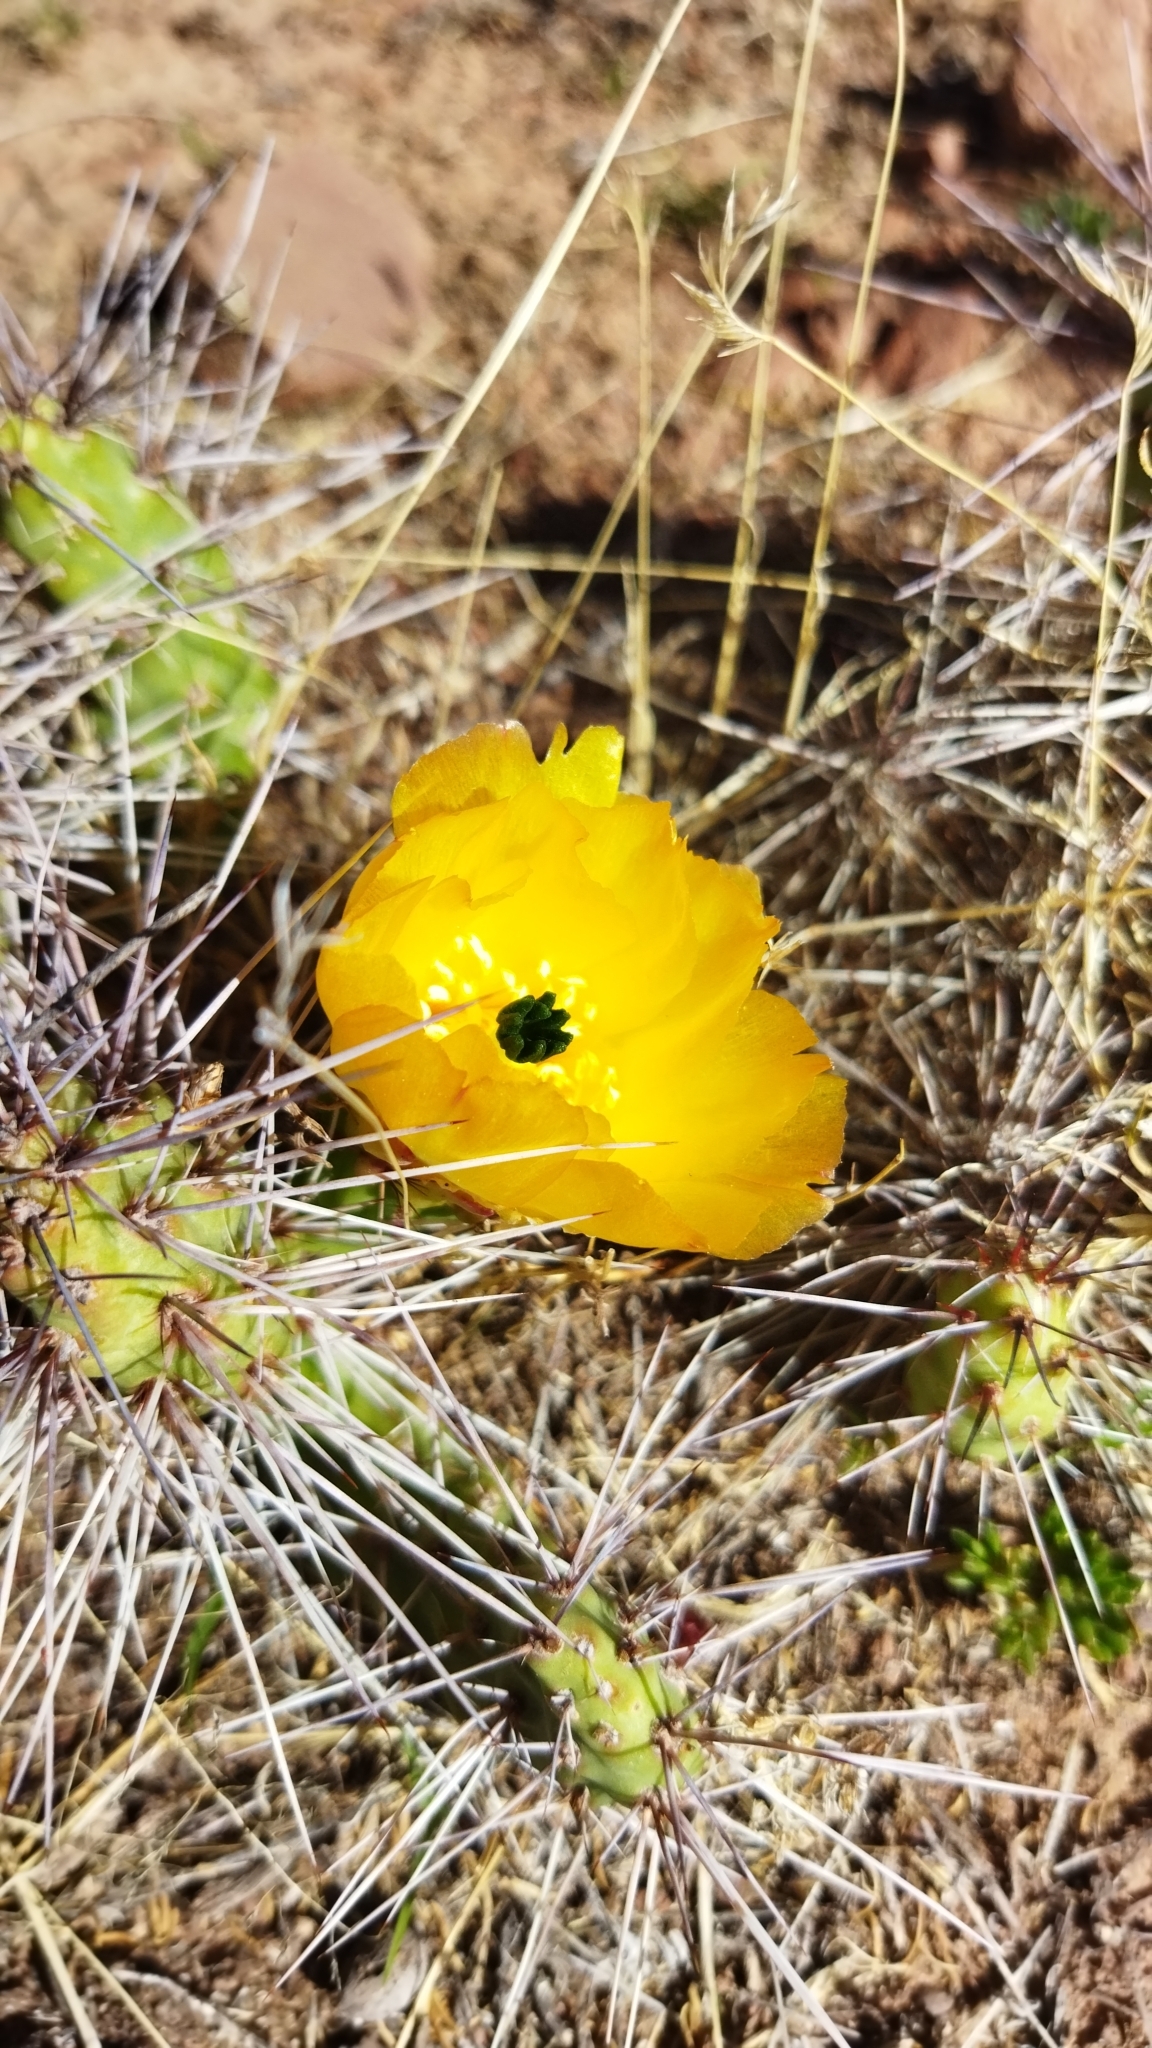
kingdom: Plantae
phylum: Tracheophyta
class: Magnoliopsida
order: Caryophyllales
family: Cactaceae
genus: Airampoa
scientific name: Airampoa soehrensii
